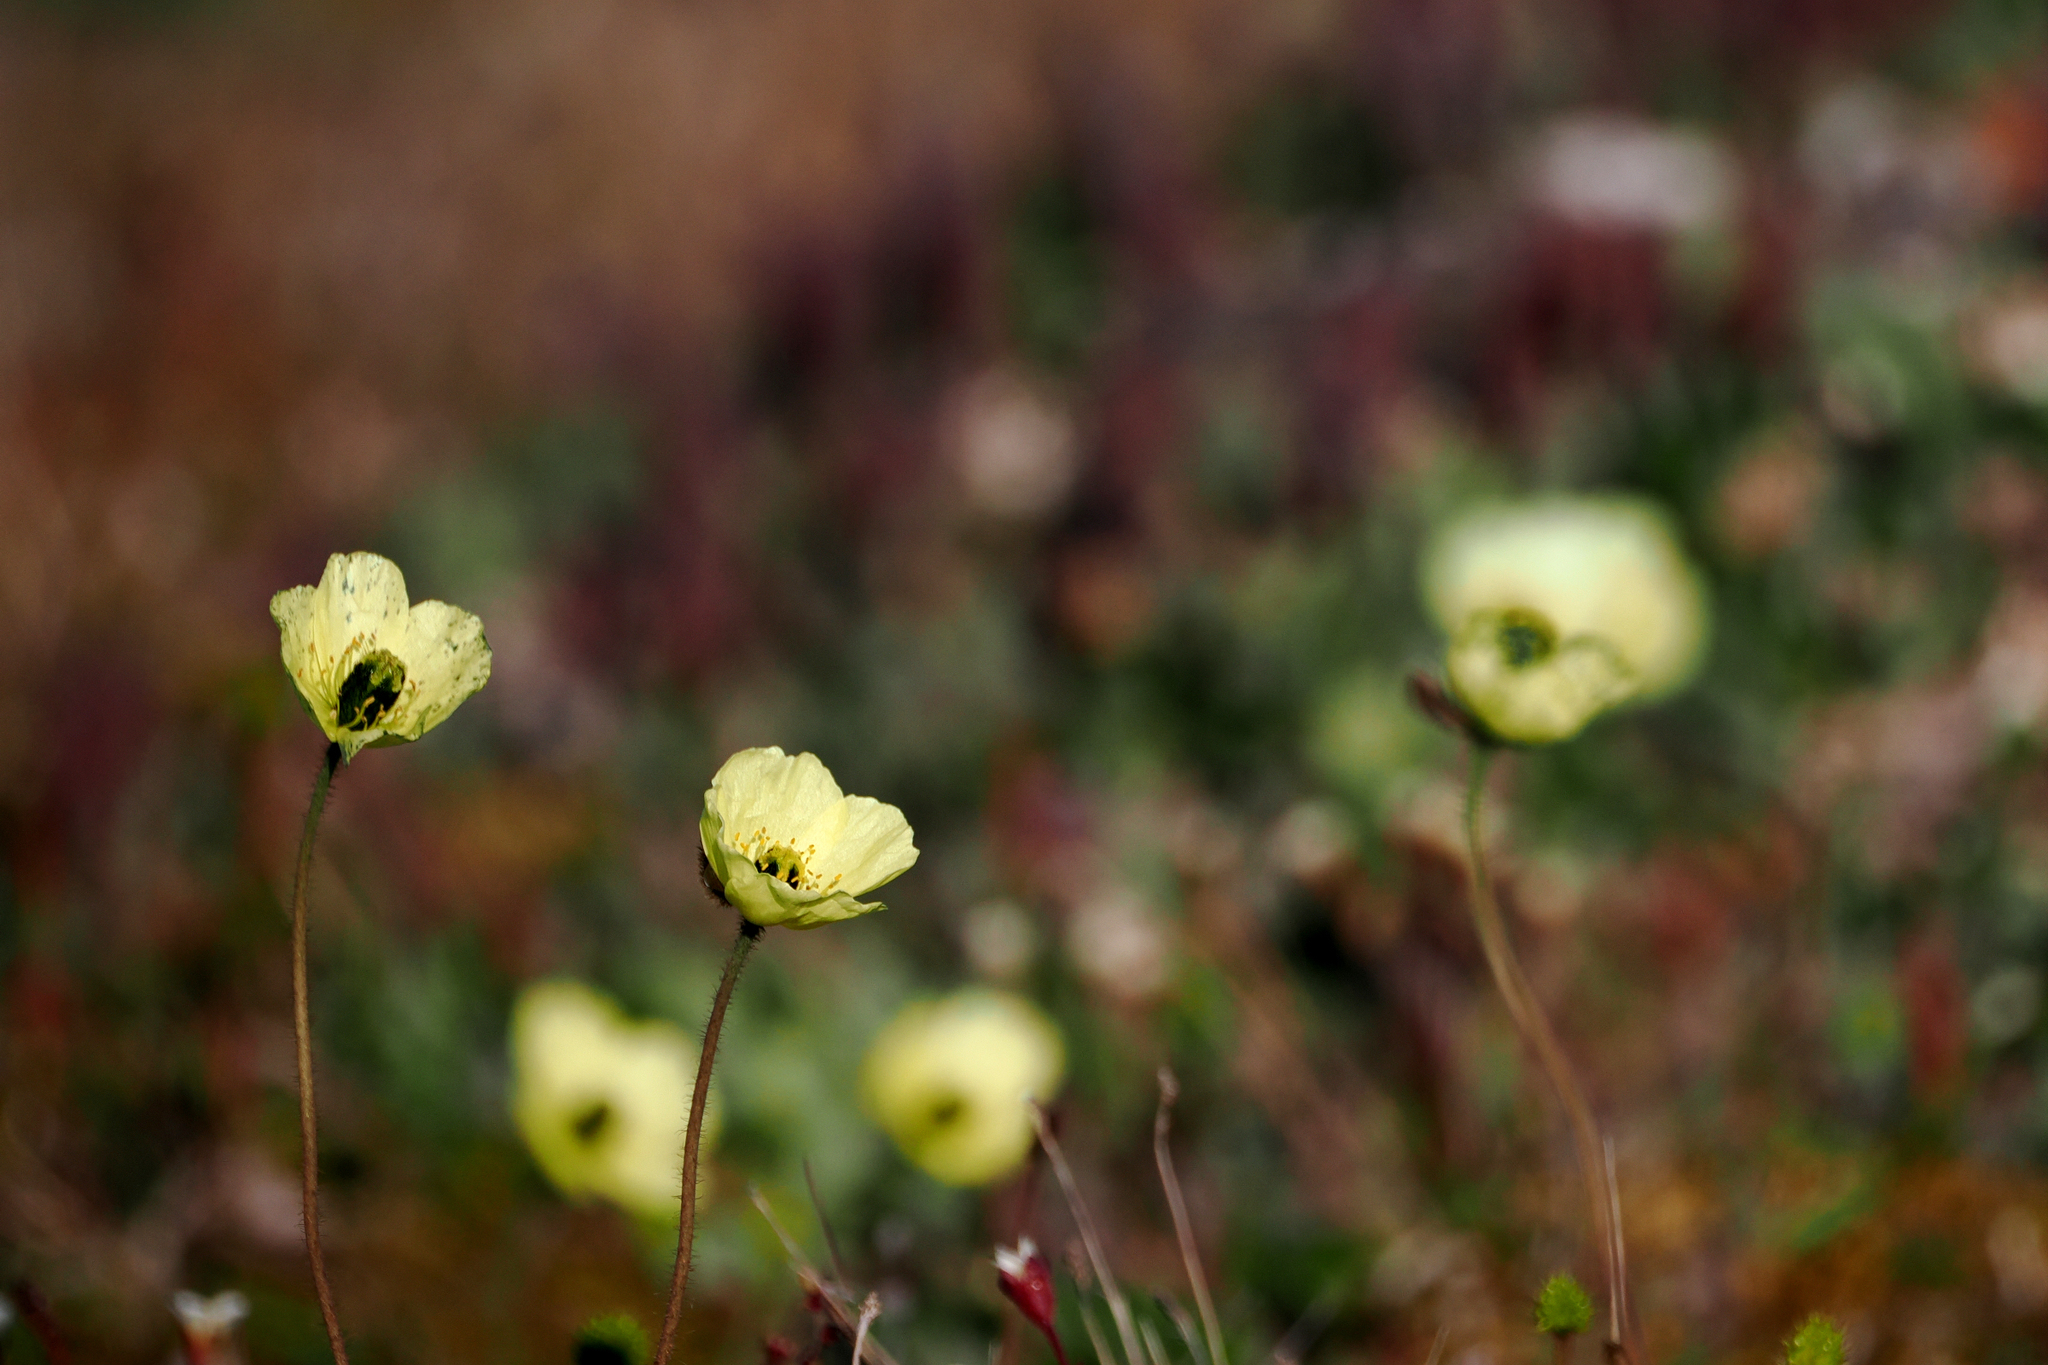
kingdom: Plantae
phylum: Tracheophyta
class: Magnoliopsida
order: Ranunculales
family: Papaveraceae
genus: Papaver
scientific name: Papaver lapponicum
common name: Lapland poppy
